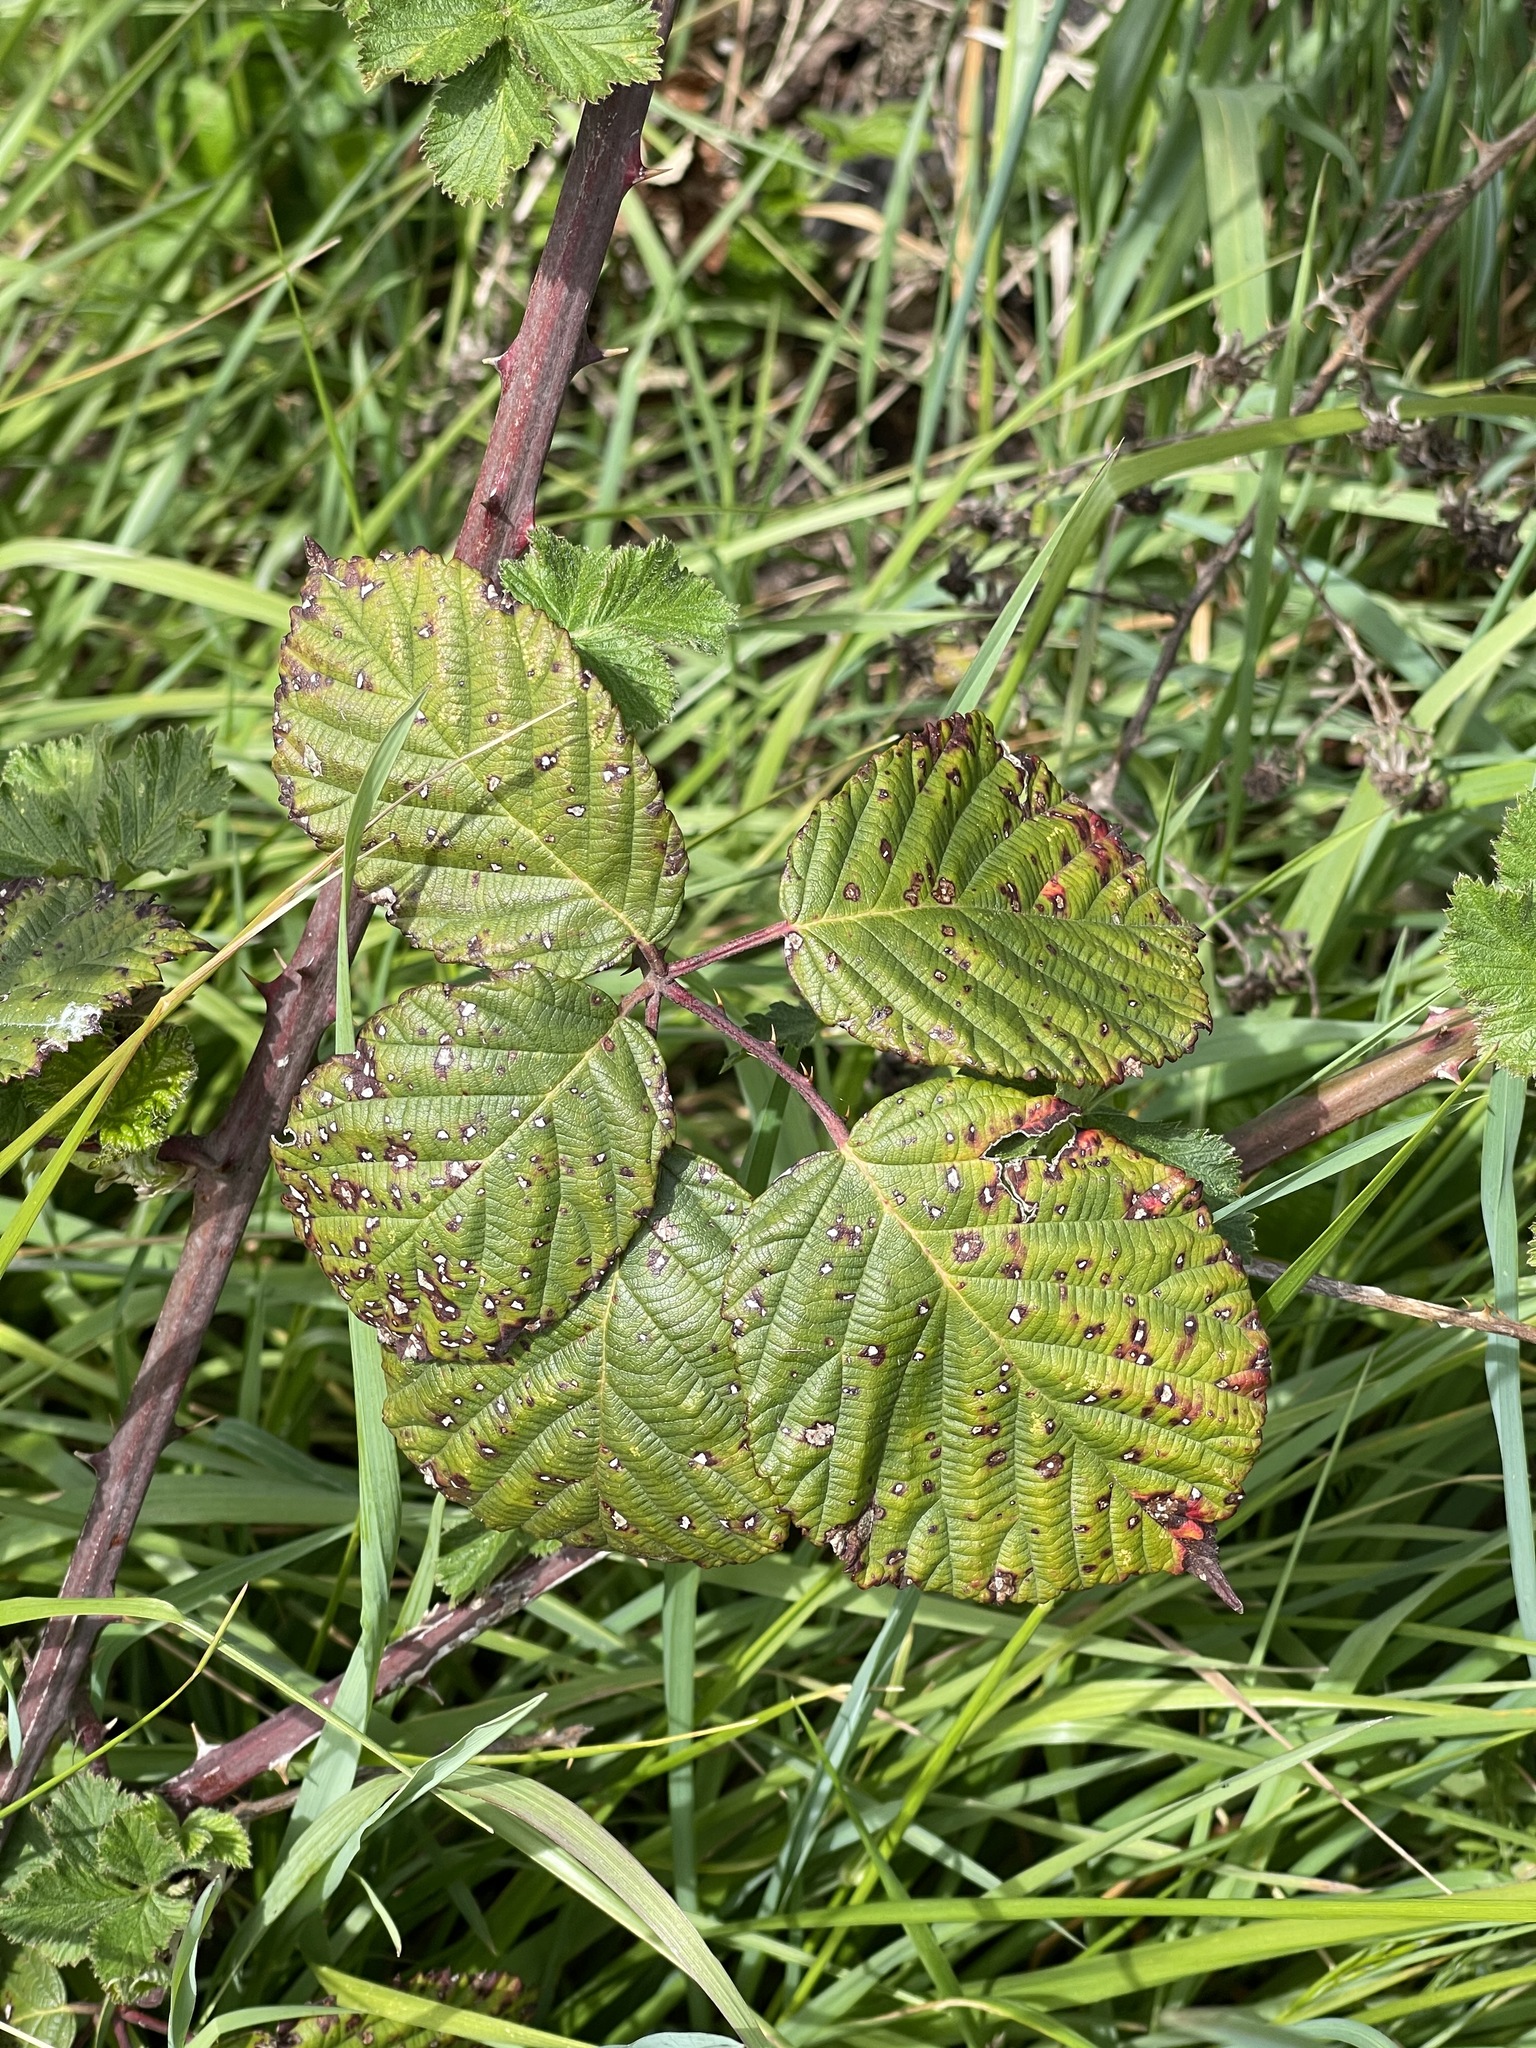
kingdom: Plantae
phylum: Tracheophyta
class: Magnoliopsida
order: Rosales
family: Rosaceae
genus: Rubus
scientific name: Rubus bifrons
